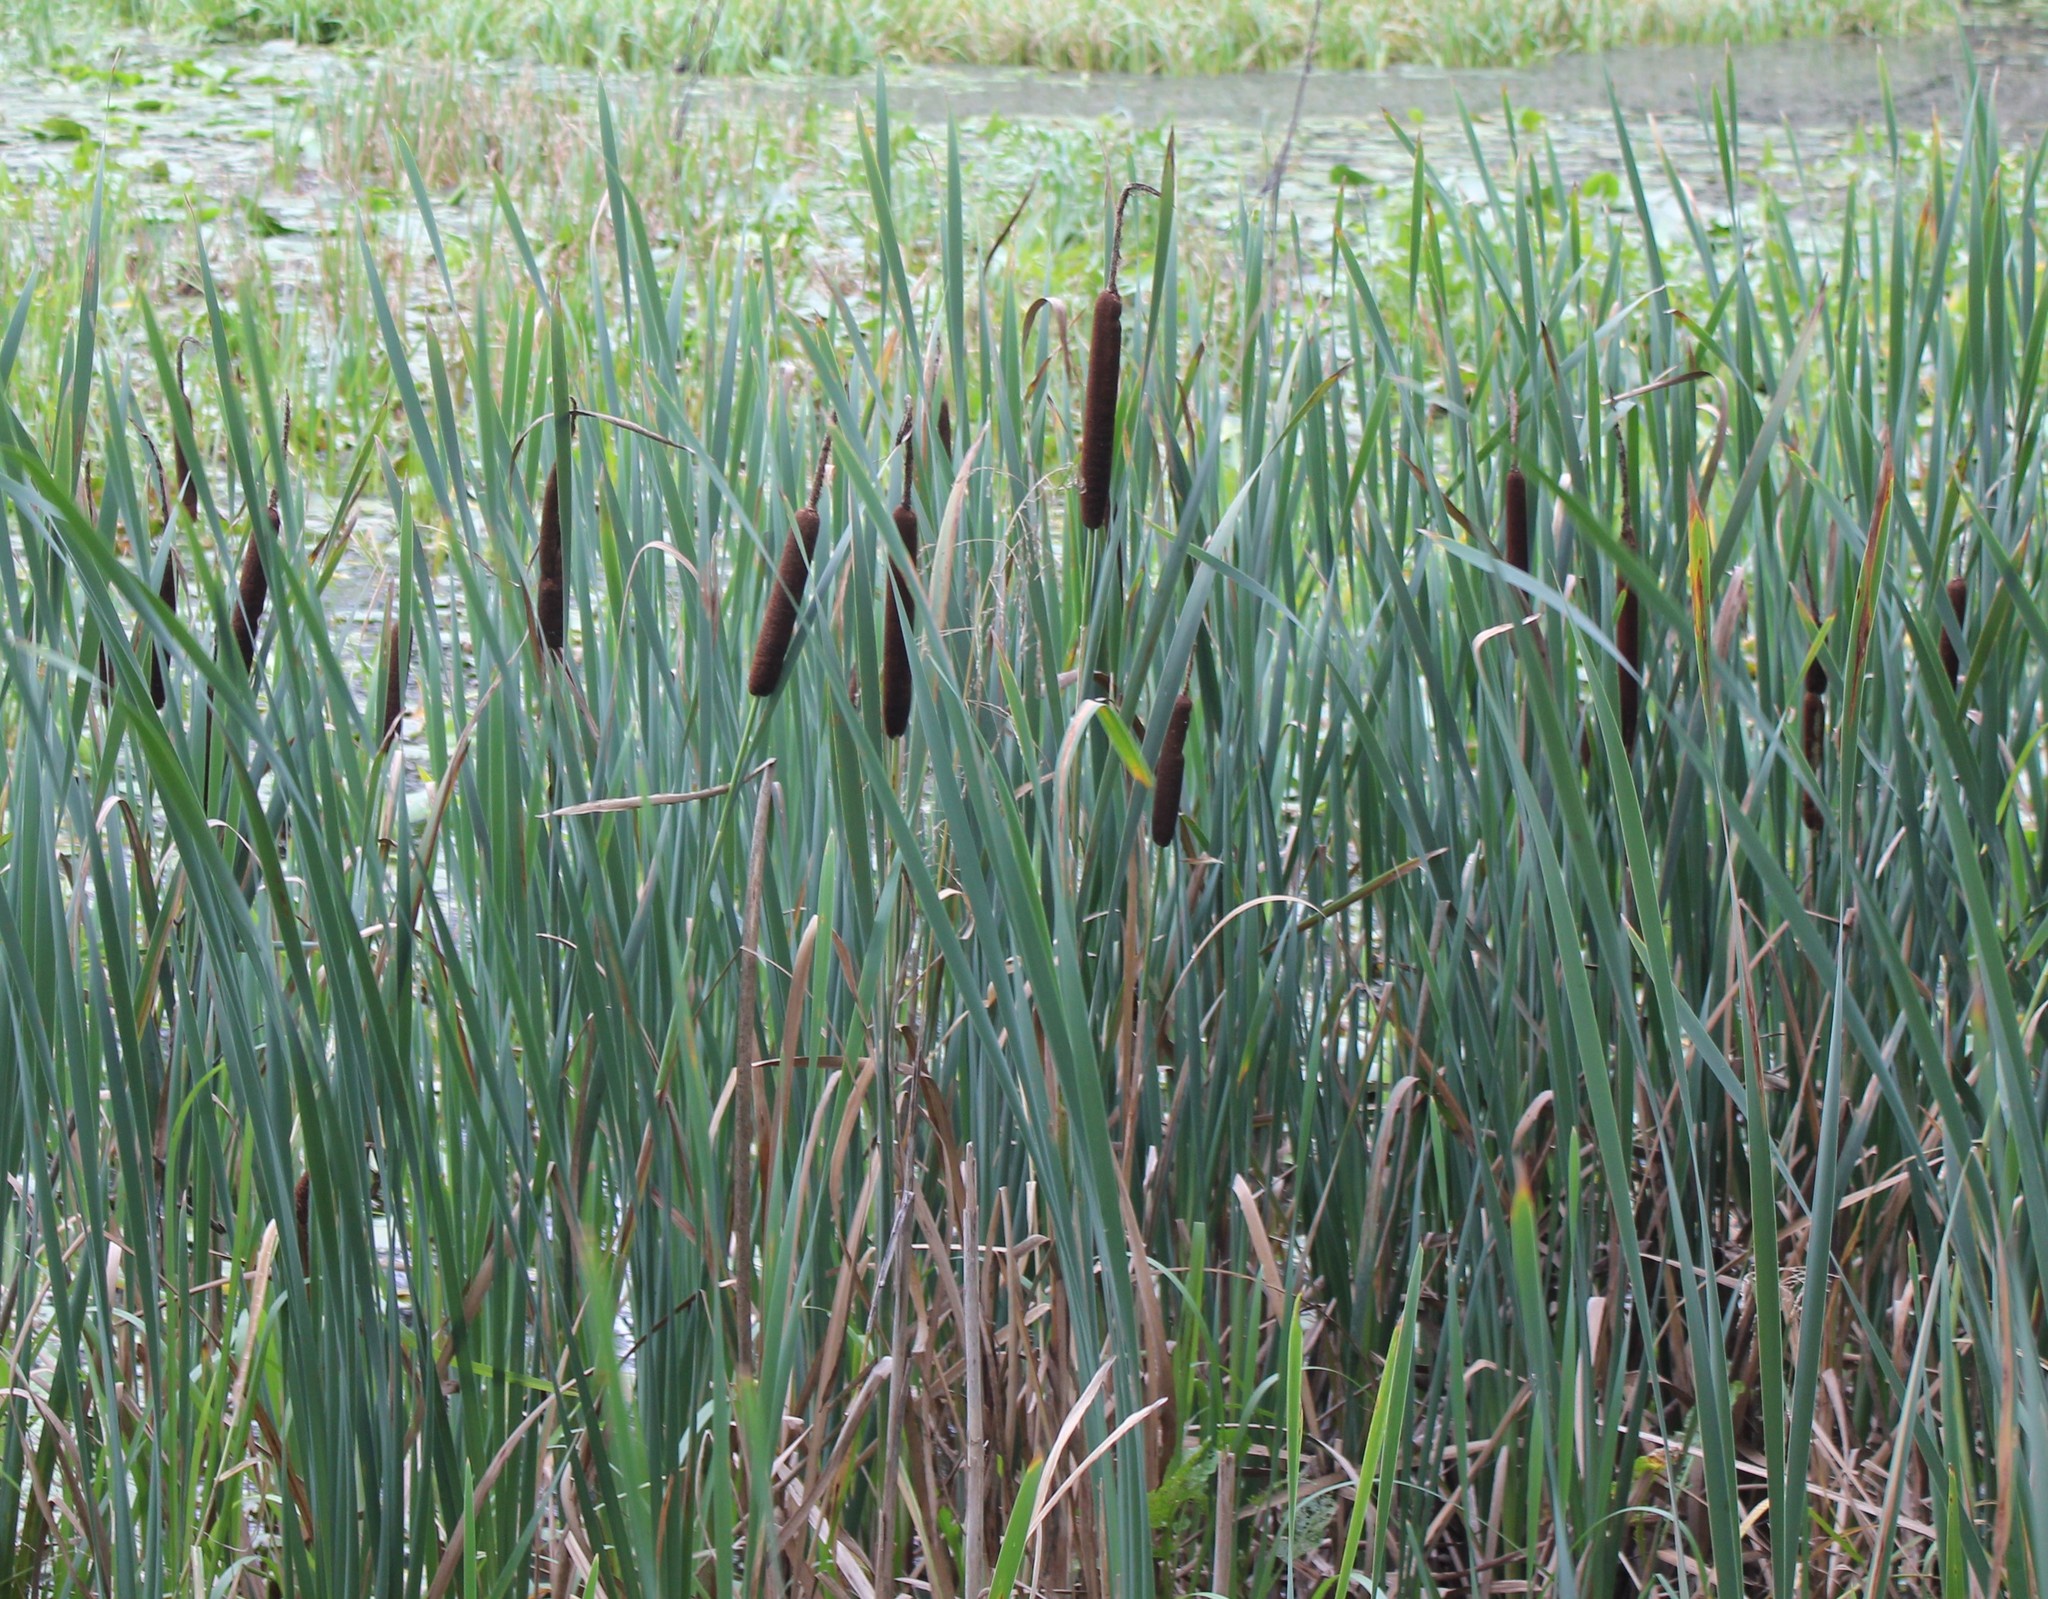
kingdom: Plantae
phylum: Tracheophyta
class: Liliopsida
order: Poales
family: Typhaceae
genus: Typha
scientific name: Typha latifolia
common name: Broadleaf cattail
